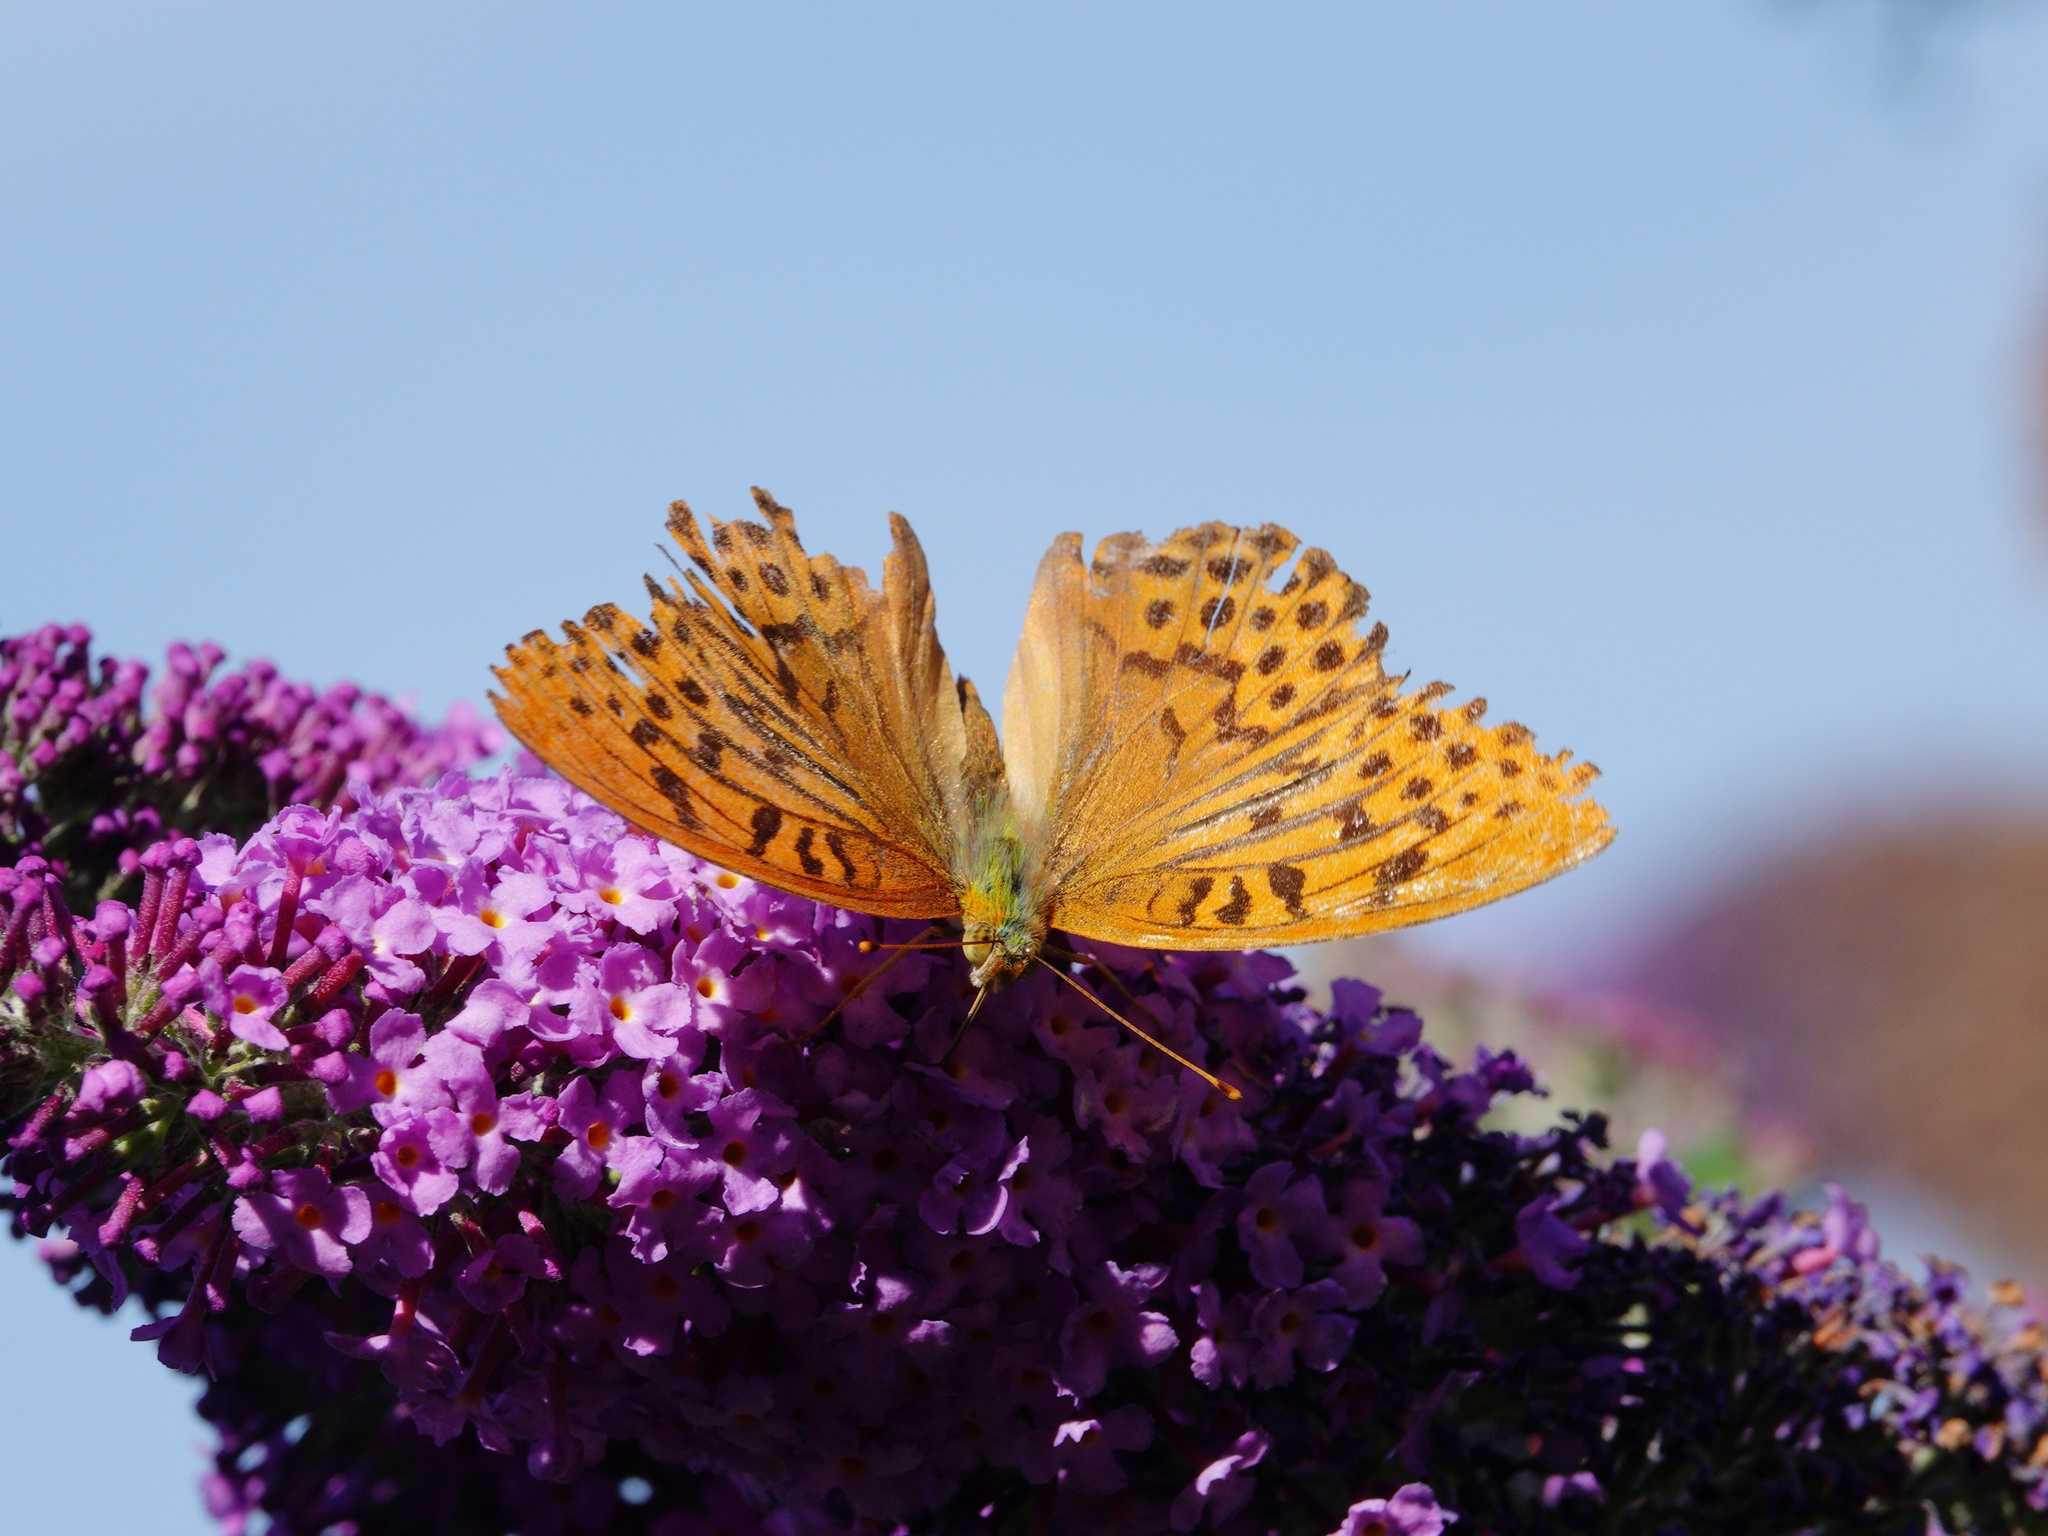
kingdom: Animalia
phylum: Arthropoda
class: Insecta
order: Lepidoptera
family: Nymphalidae
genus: Argynnis
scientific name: Argynnis paphia
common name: Silver-washed fritillary
